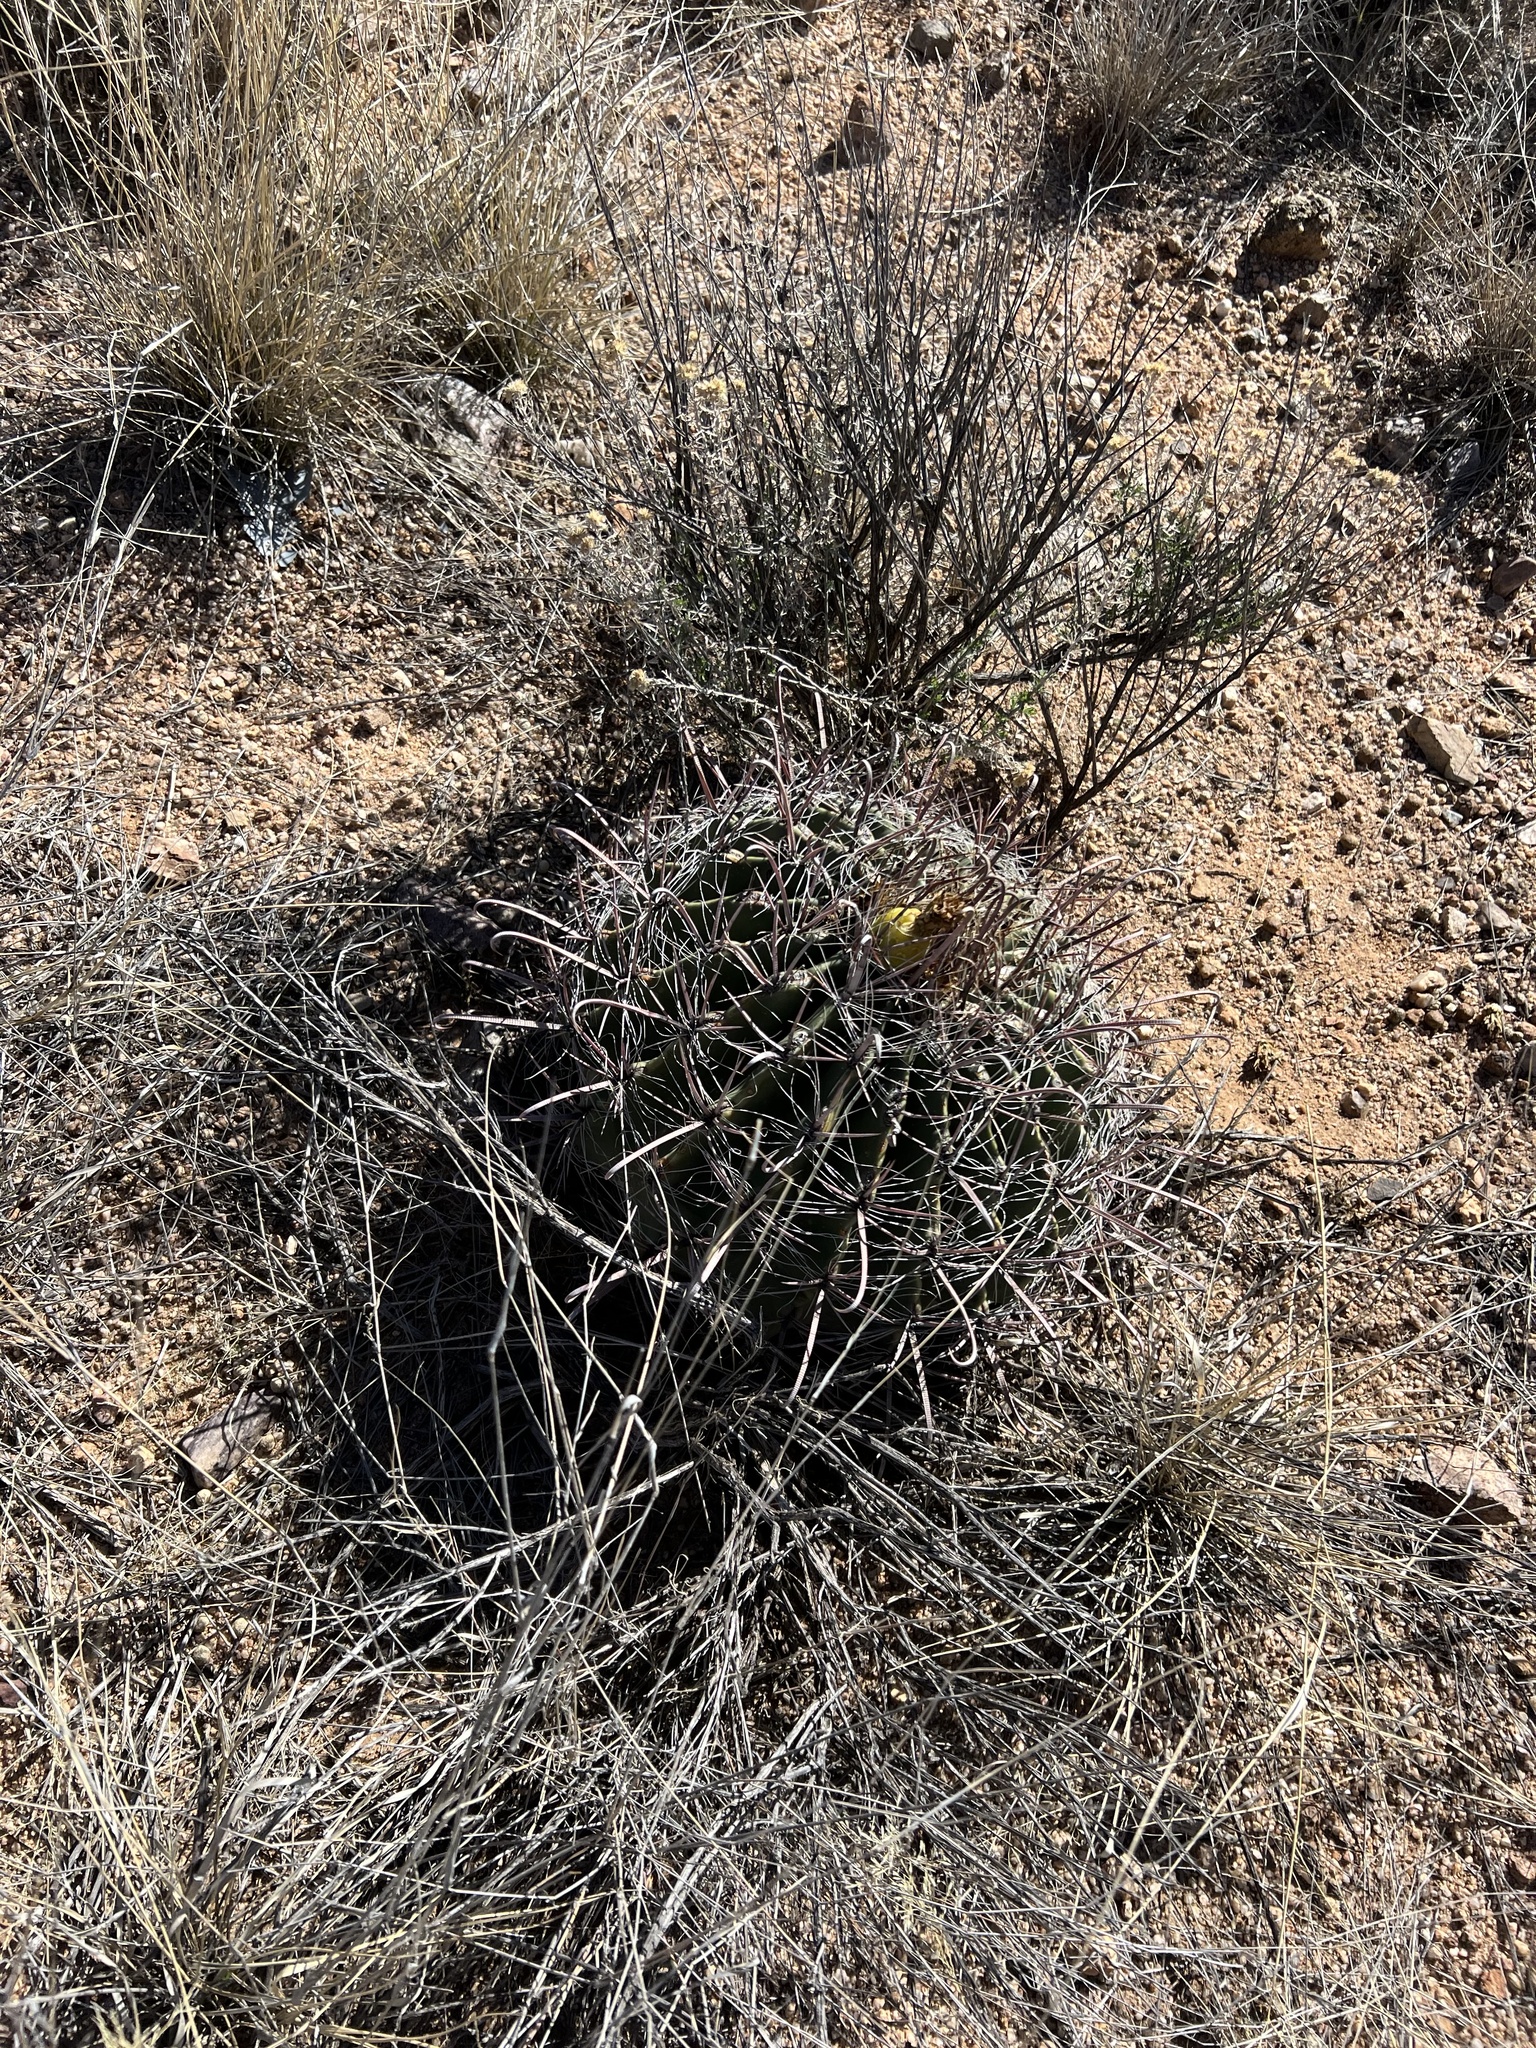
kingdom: Plantae
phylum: Tracheophyta
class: Magnoliopsida
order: Caryophyllales
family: Cactaceae
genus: Ferocactus
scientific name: Ferocactus wislizeni
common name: Candy barrel cactus
